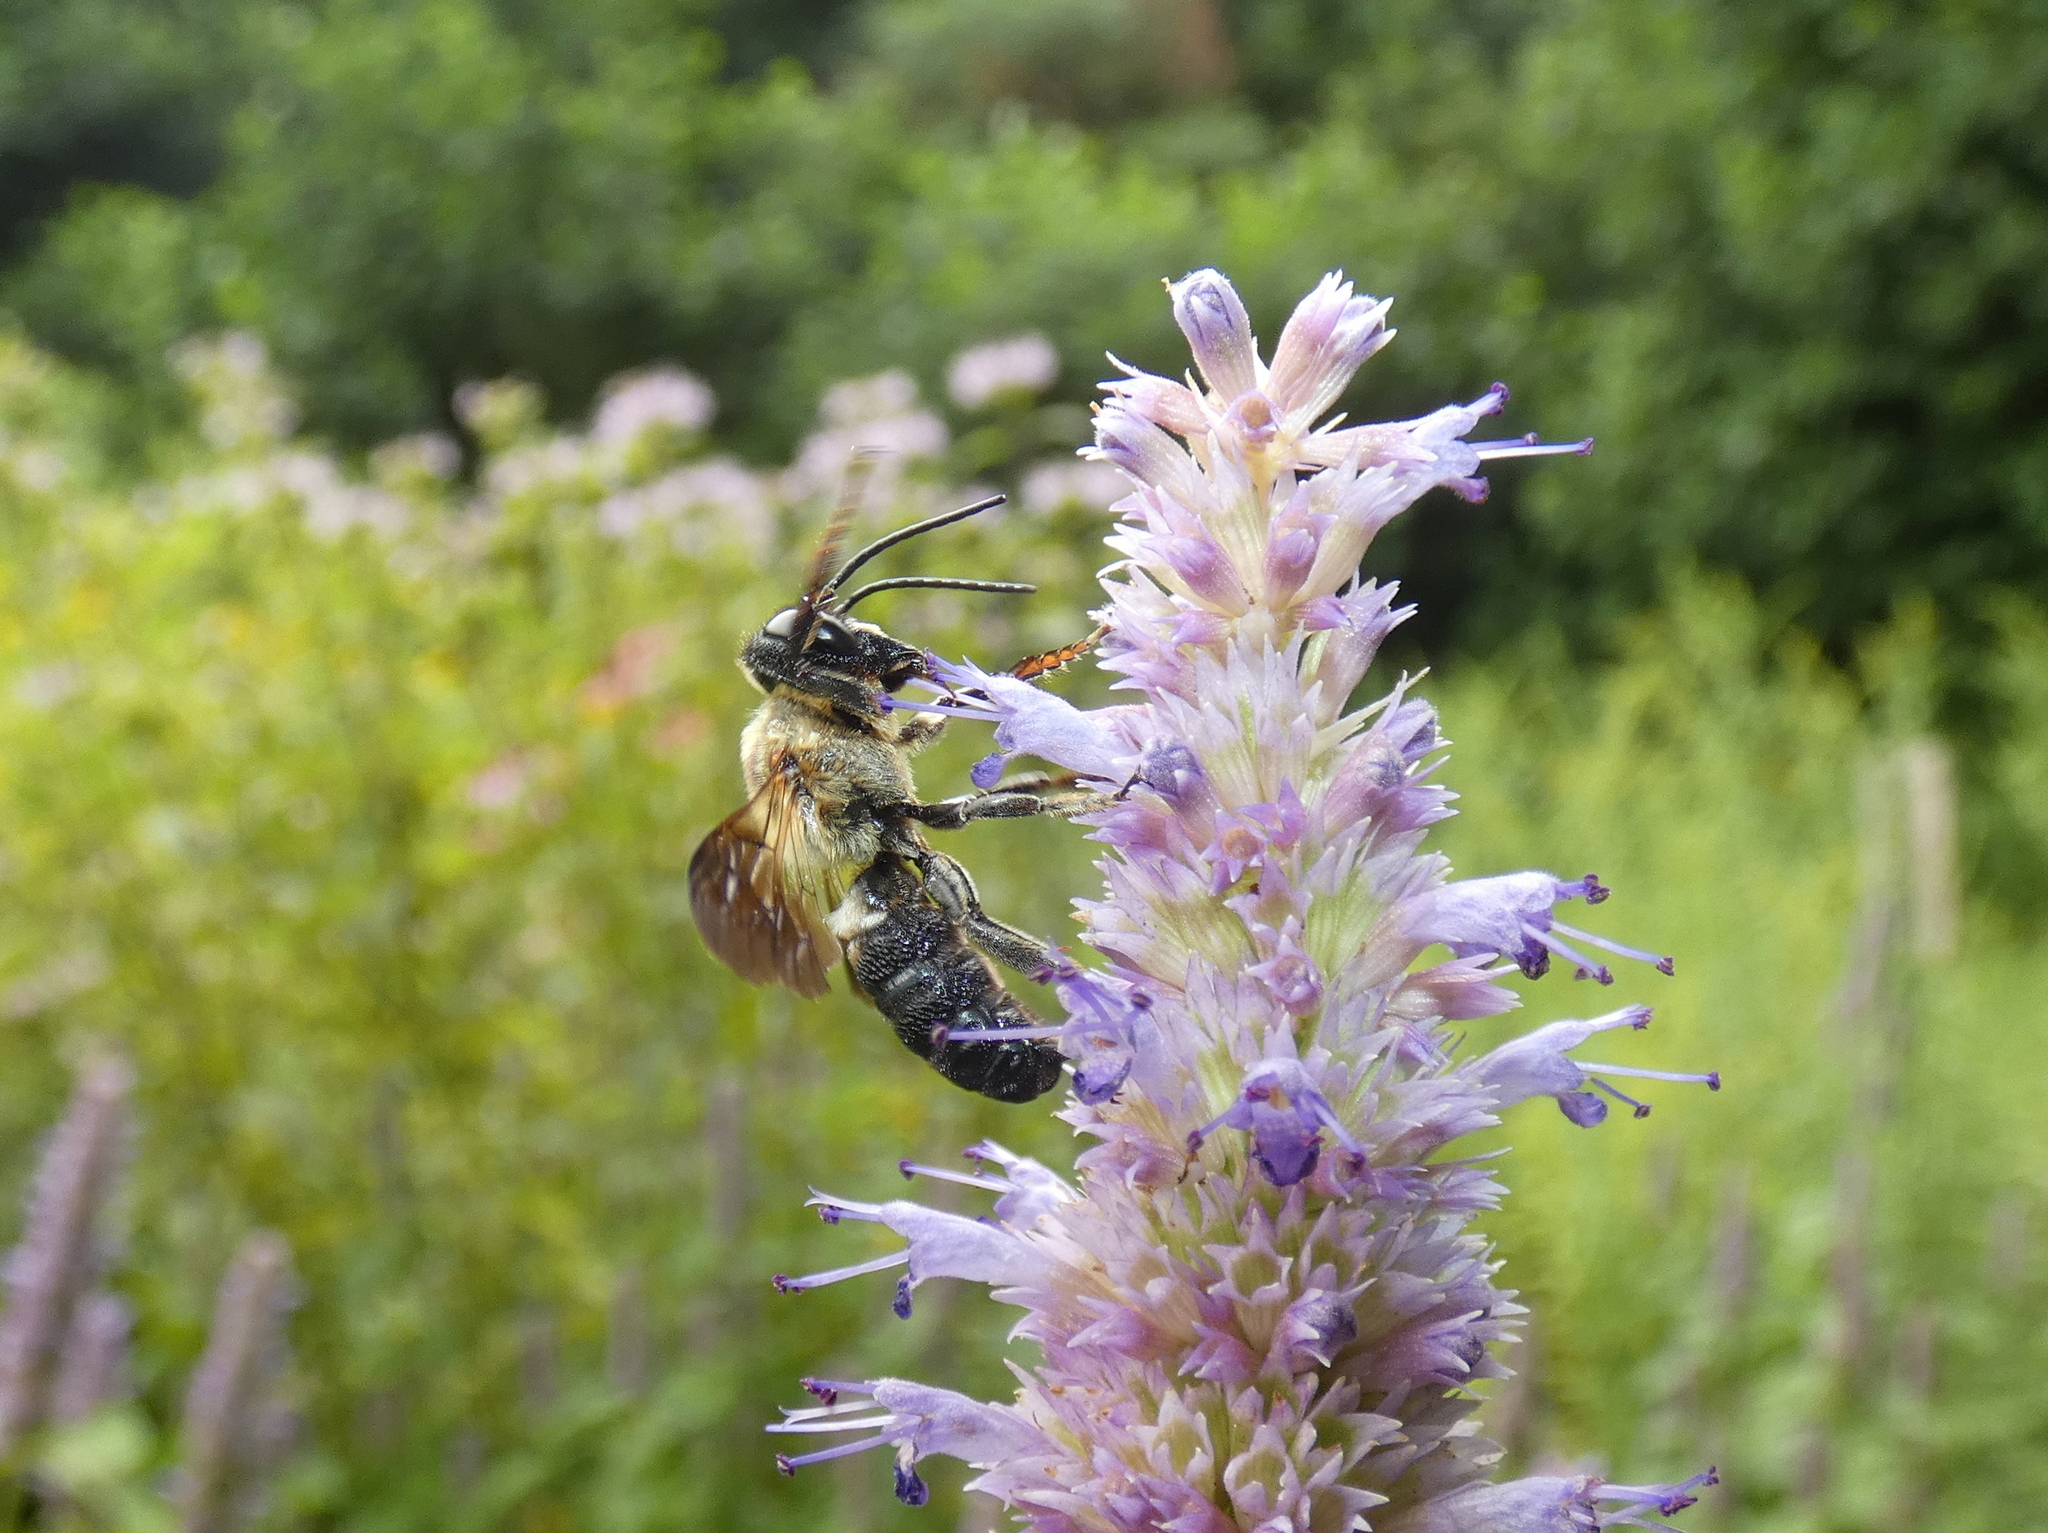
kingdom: Animalia
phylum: Arthropoda
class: Insecta
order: Hymenoptera
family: Megachilidae
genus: Megachile
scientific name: Megachile sculpturalis
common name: Sculptured resin bee
